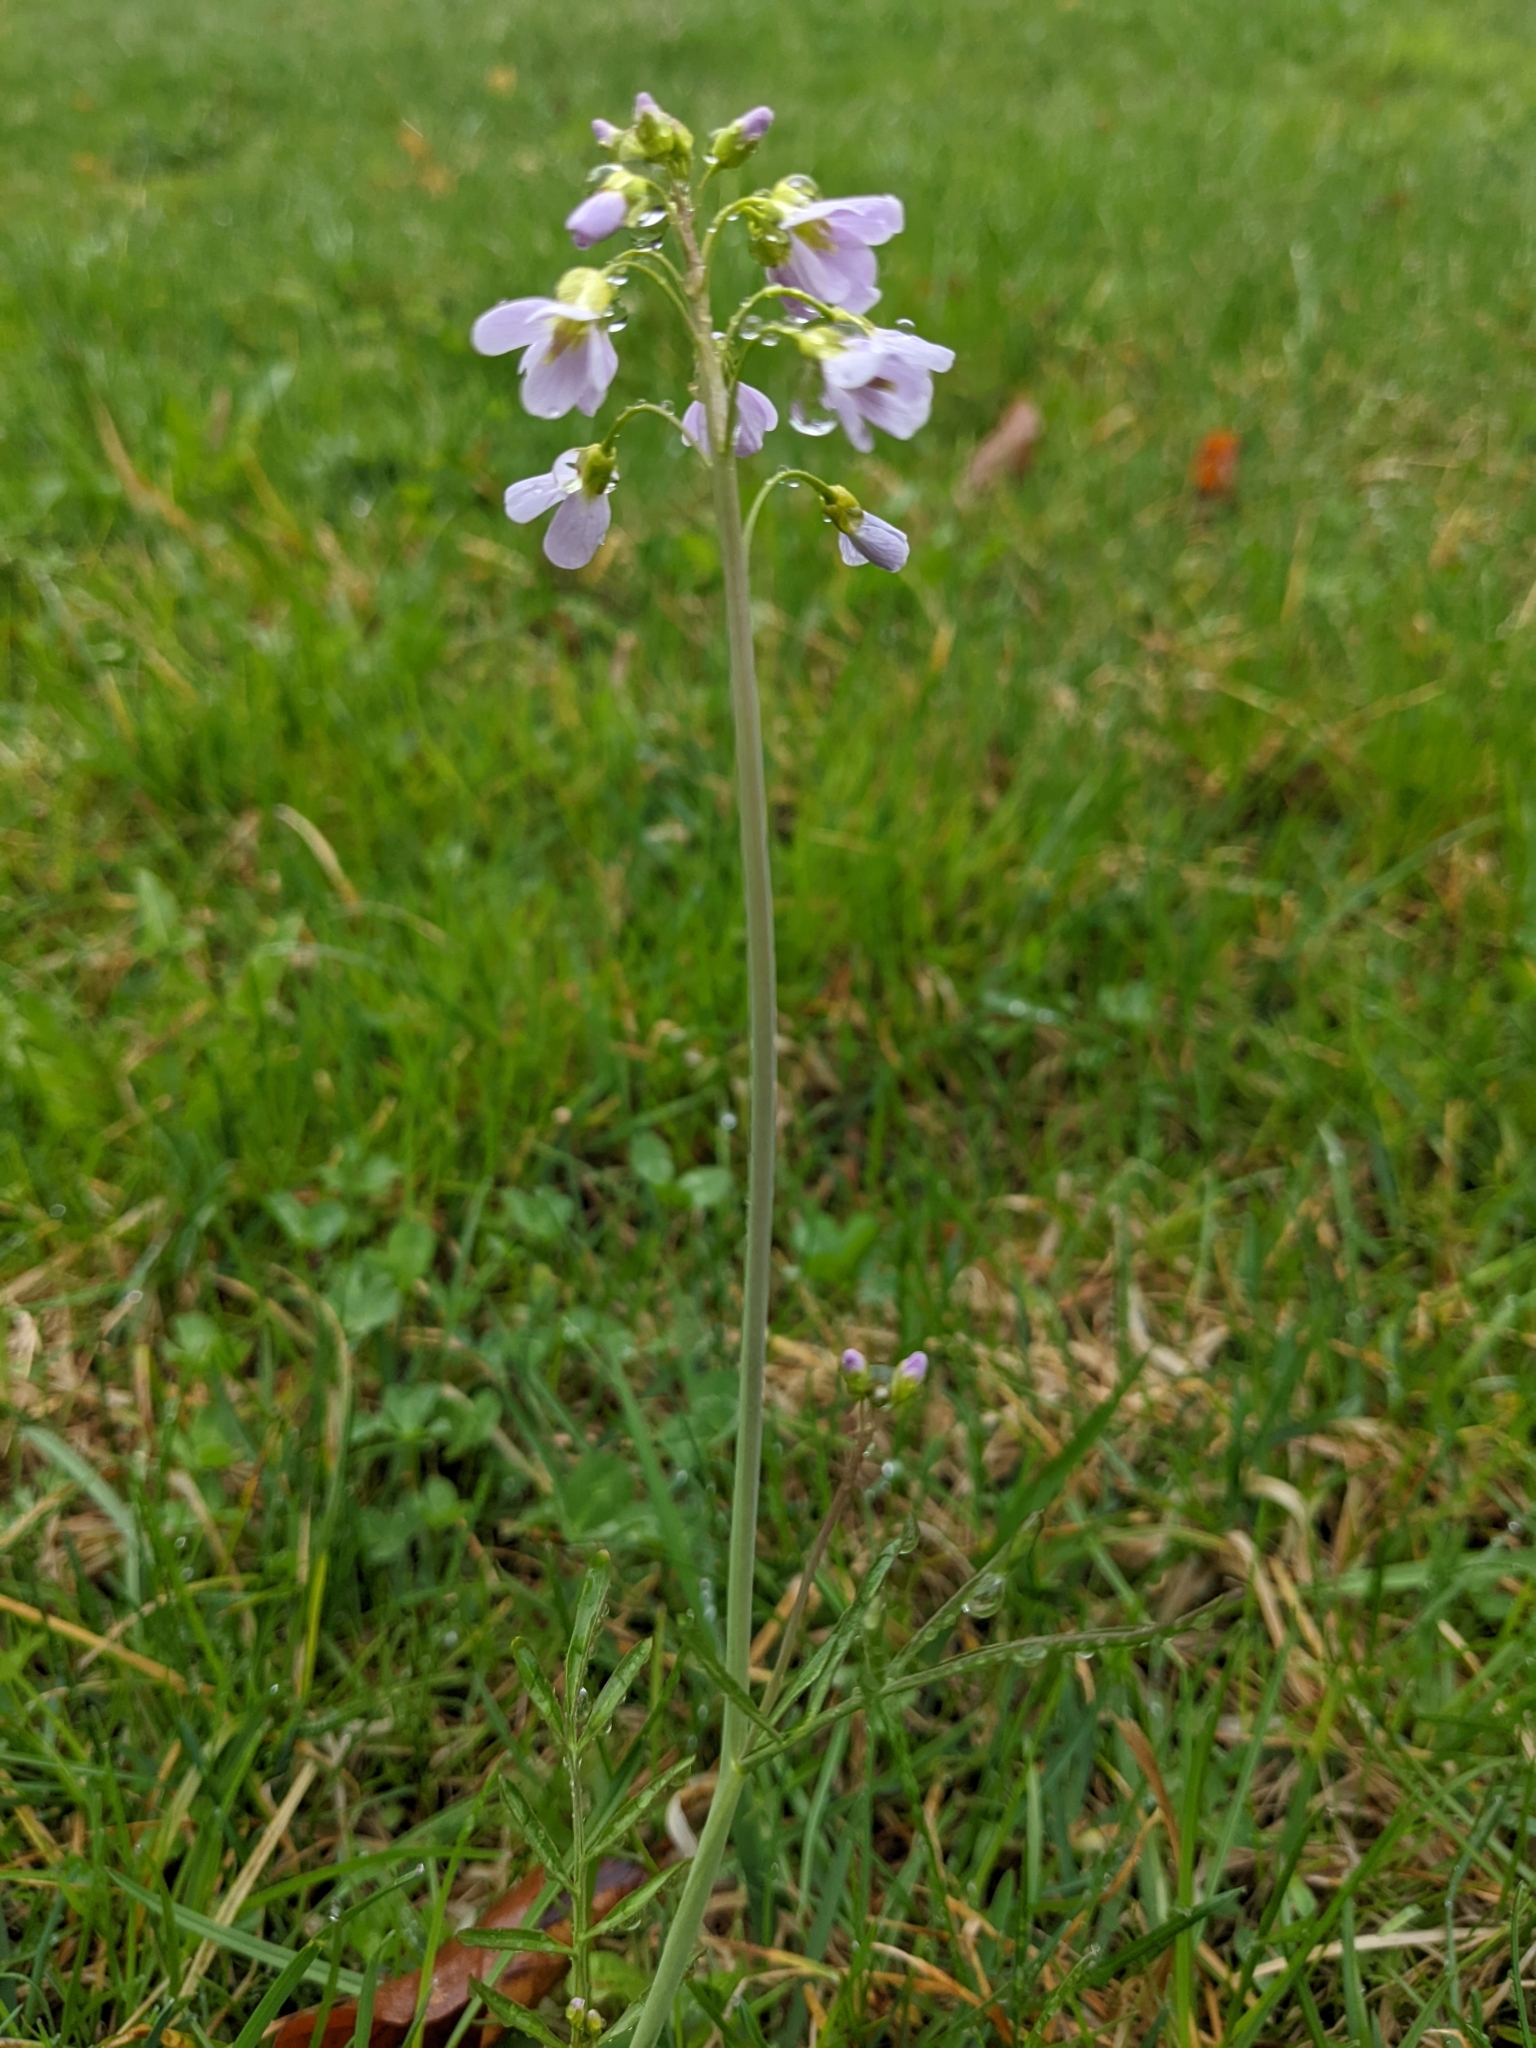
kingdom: Plantae
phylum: Tracheophyta
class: Magnoliopsida
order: Brassicales
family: Brassicaceae
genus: Cardamine
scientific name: Cardamine pratensis
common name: Cuckoo flower
